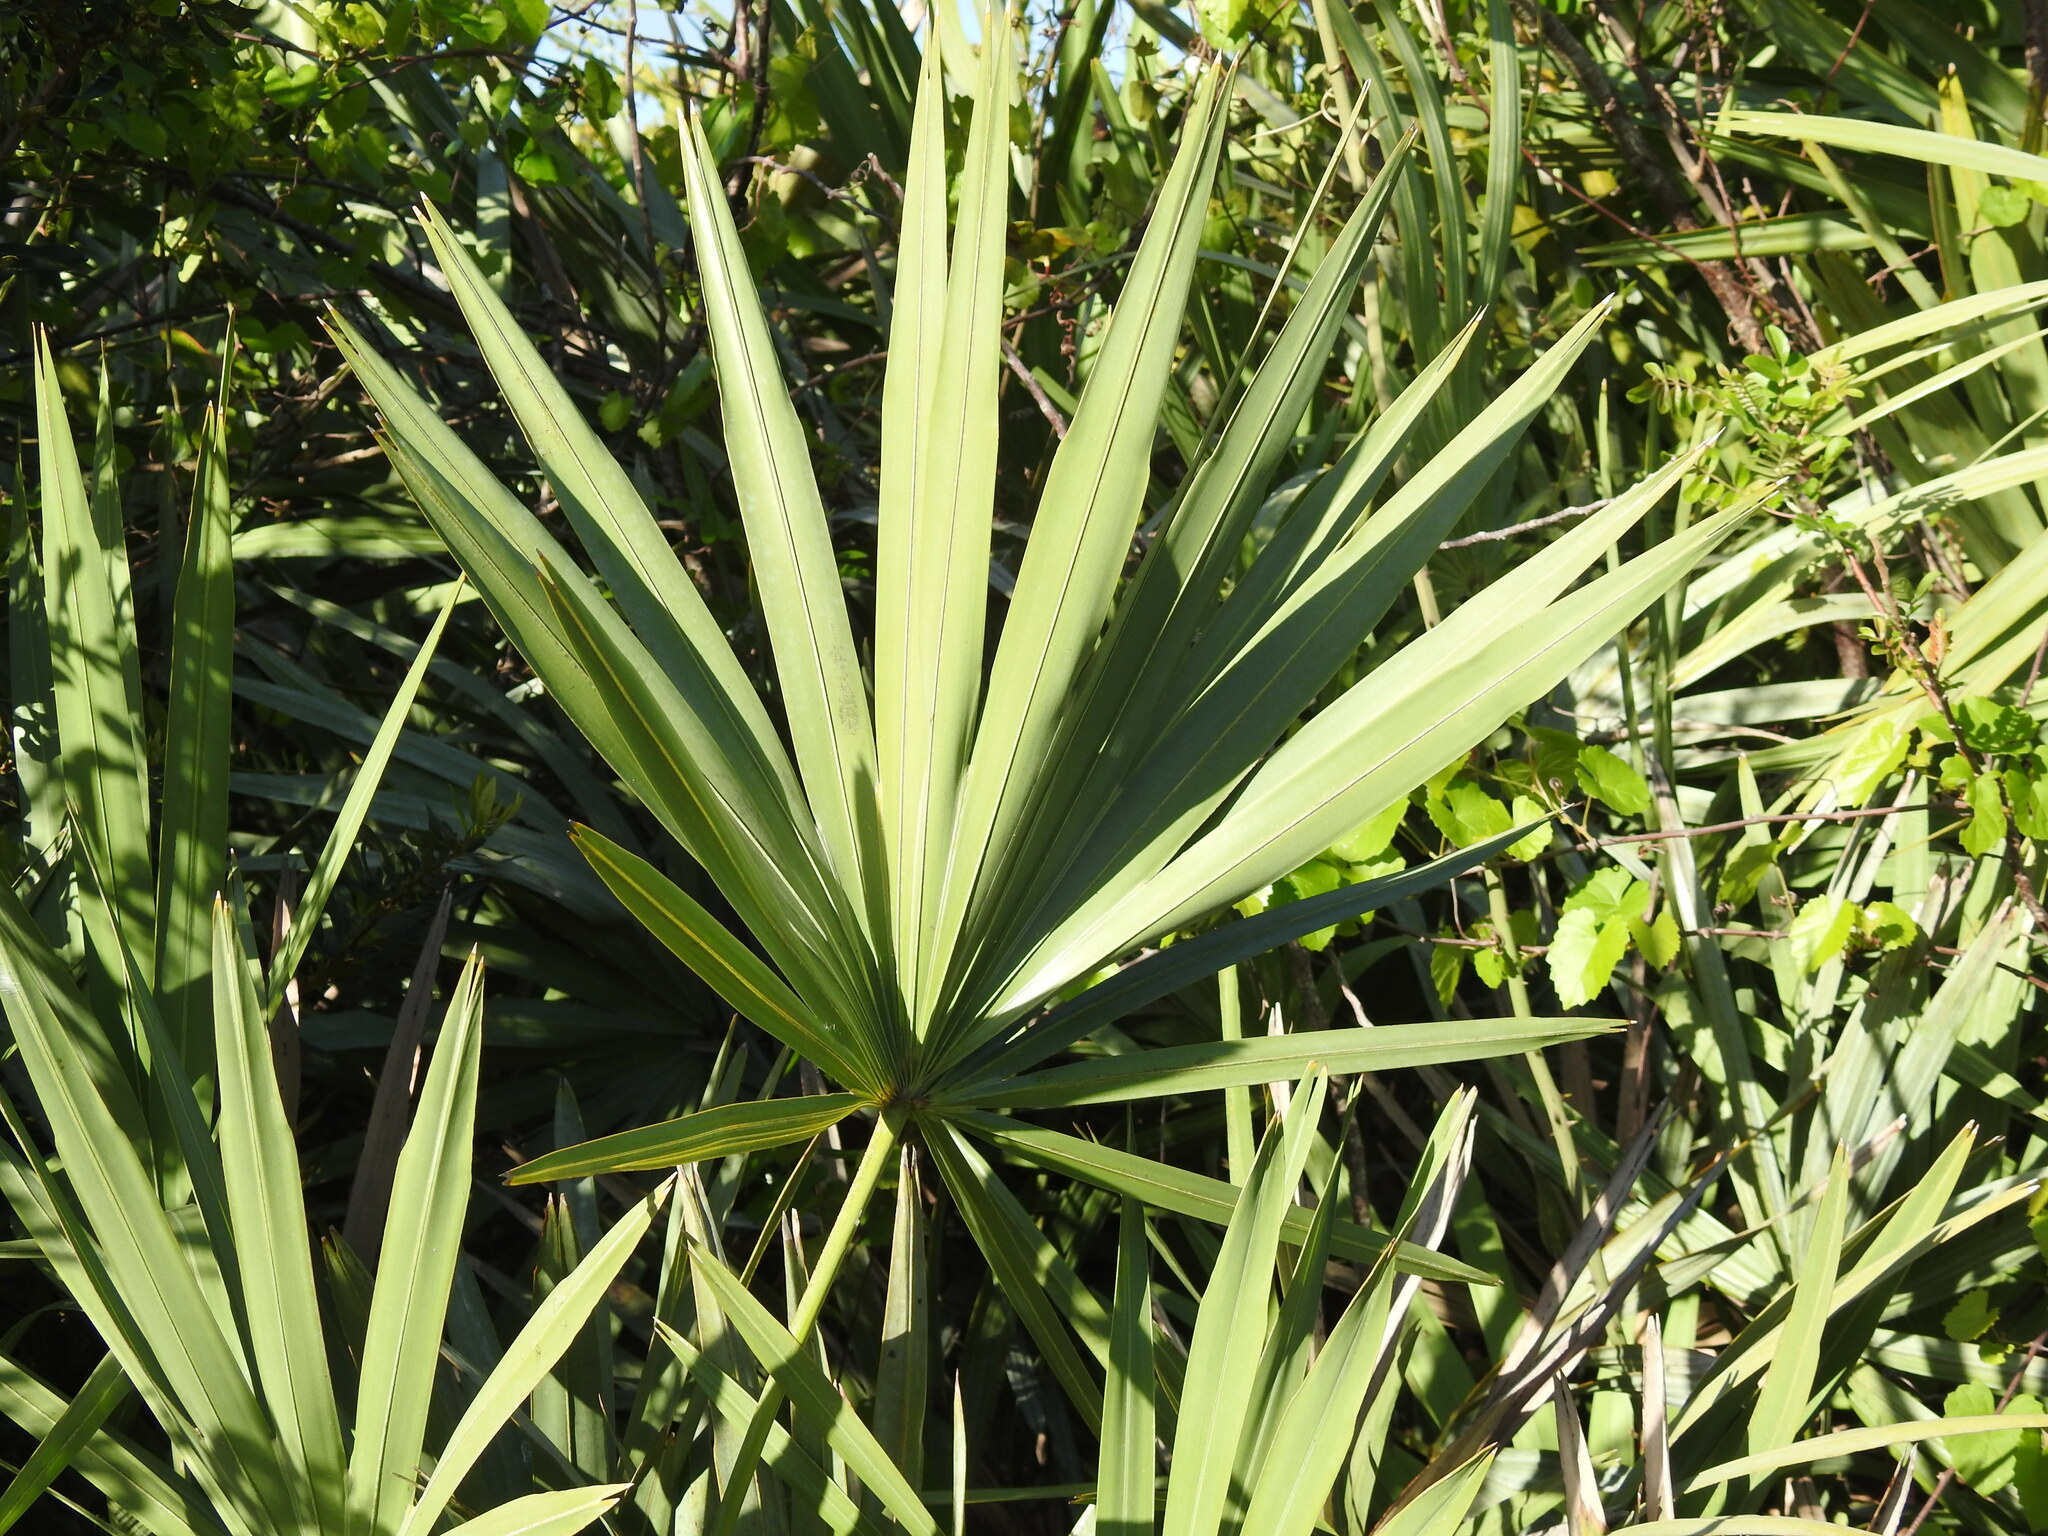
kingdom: Plantae
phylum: Tracheophyta
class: Liliopsida
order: Arecales
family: Arecaceae
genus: Serenoa
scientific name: Serenoa repens
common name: Saw-palmetto
